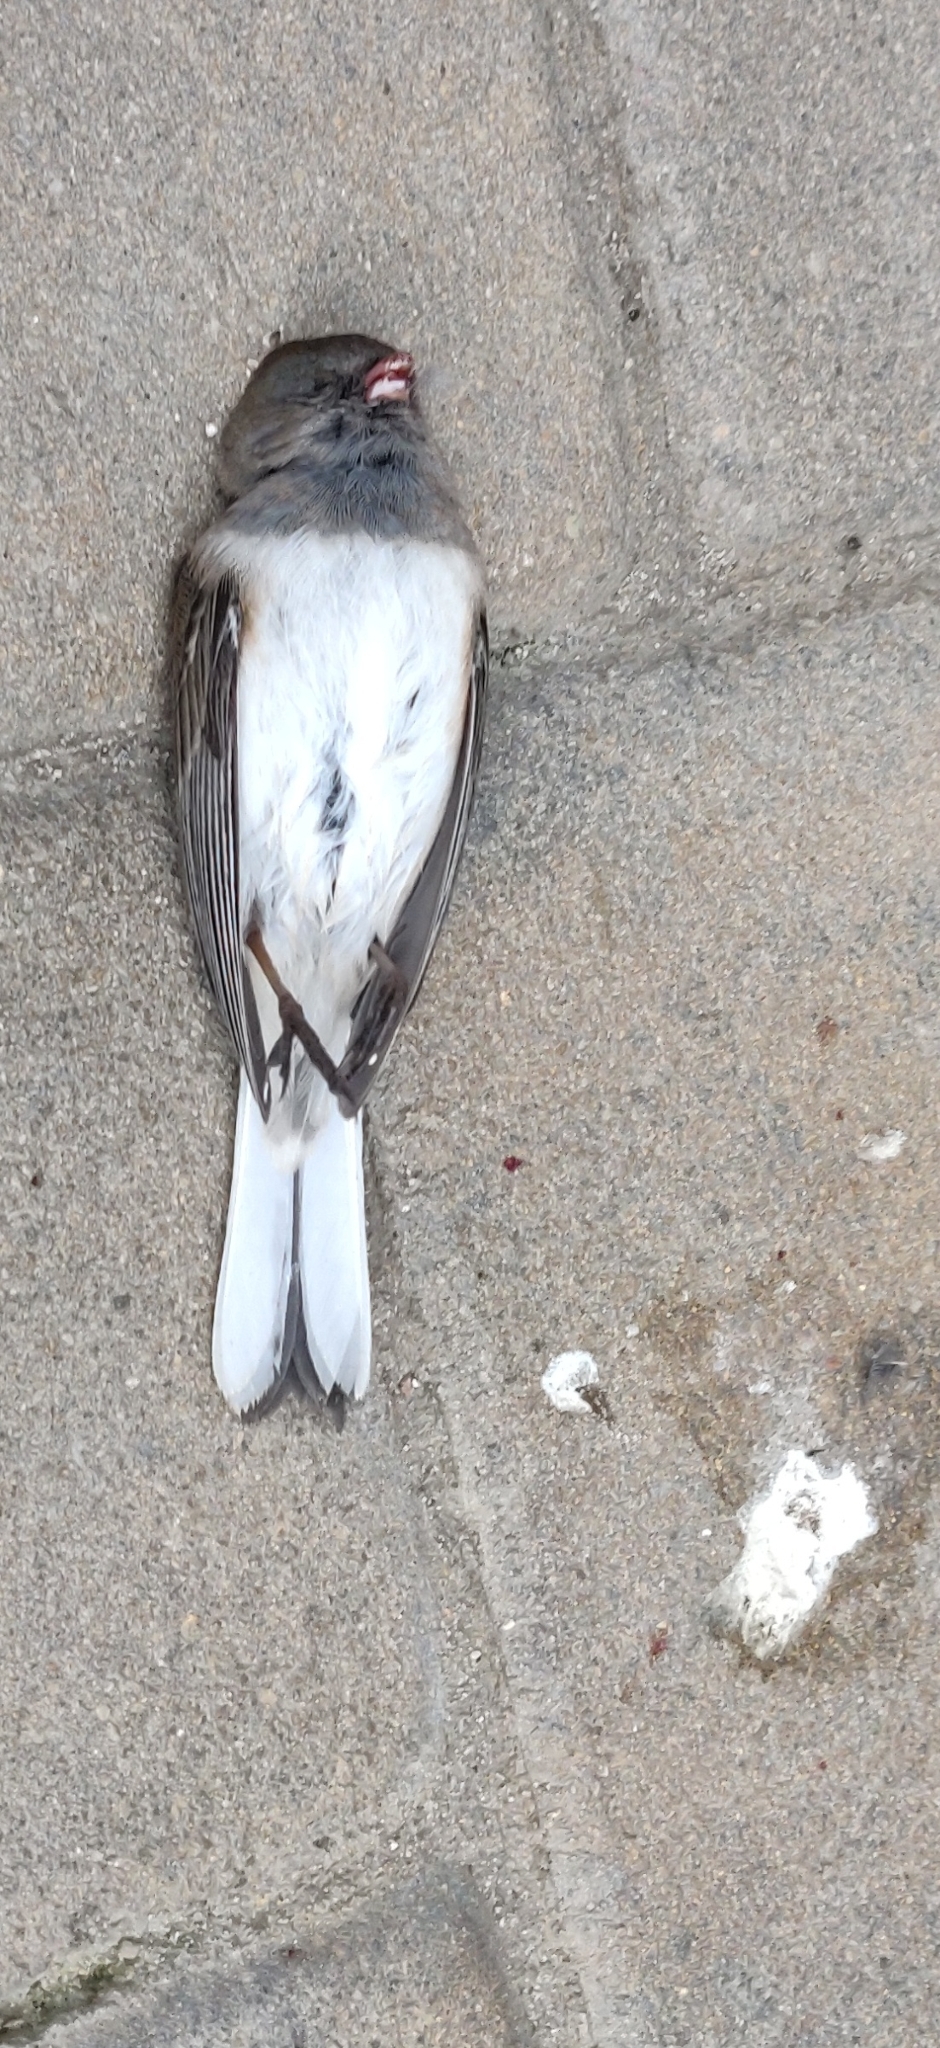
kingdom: Animalia
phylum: Chordata
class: Aves
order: Passeriformes
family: Passerellidae
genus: Junco
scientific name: Junco hyemalis
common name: Dark-eyed junco
